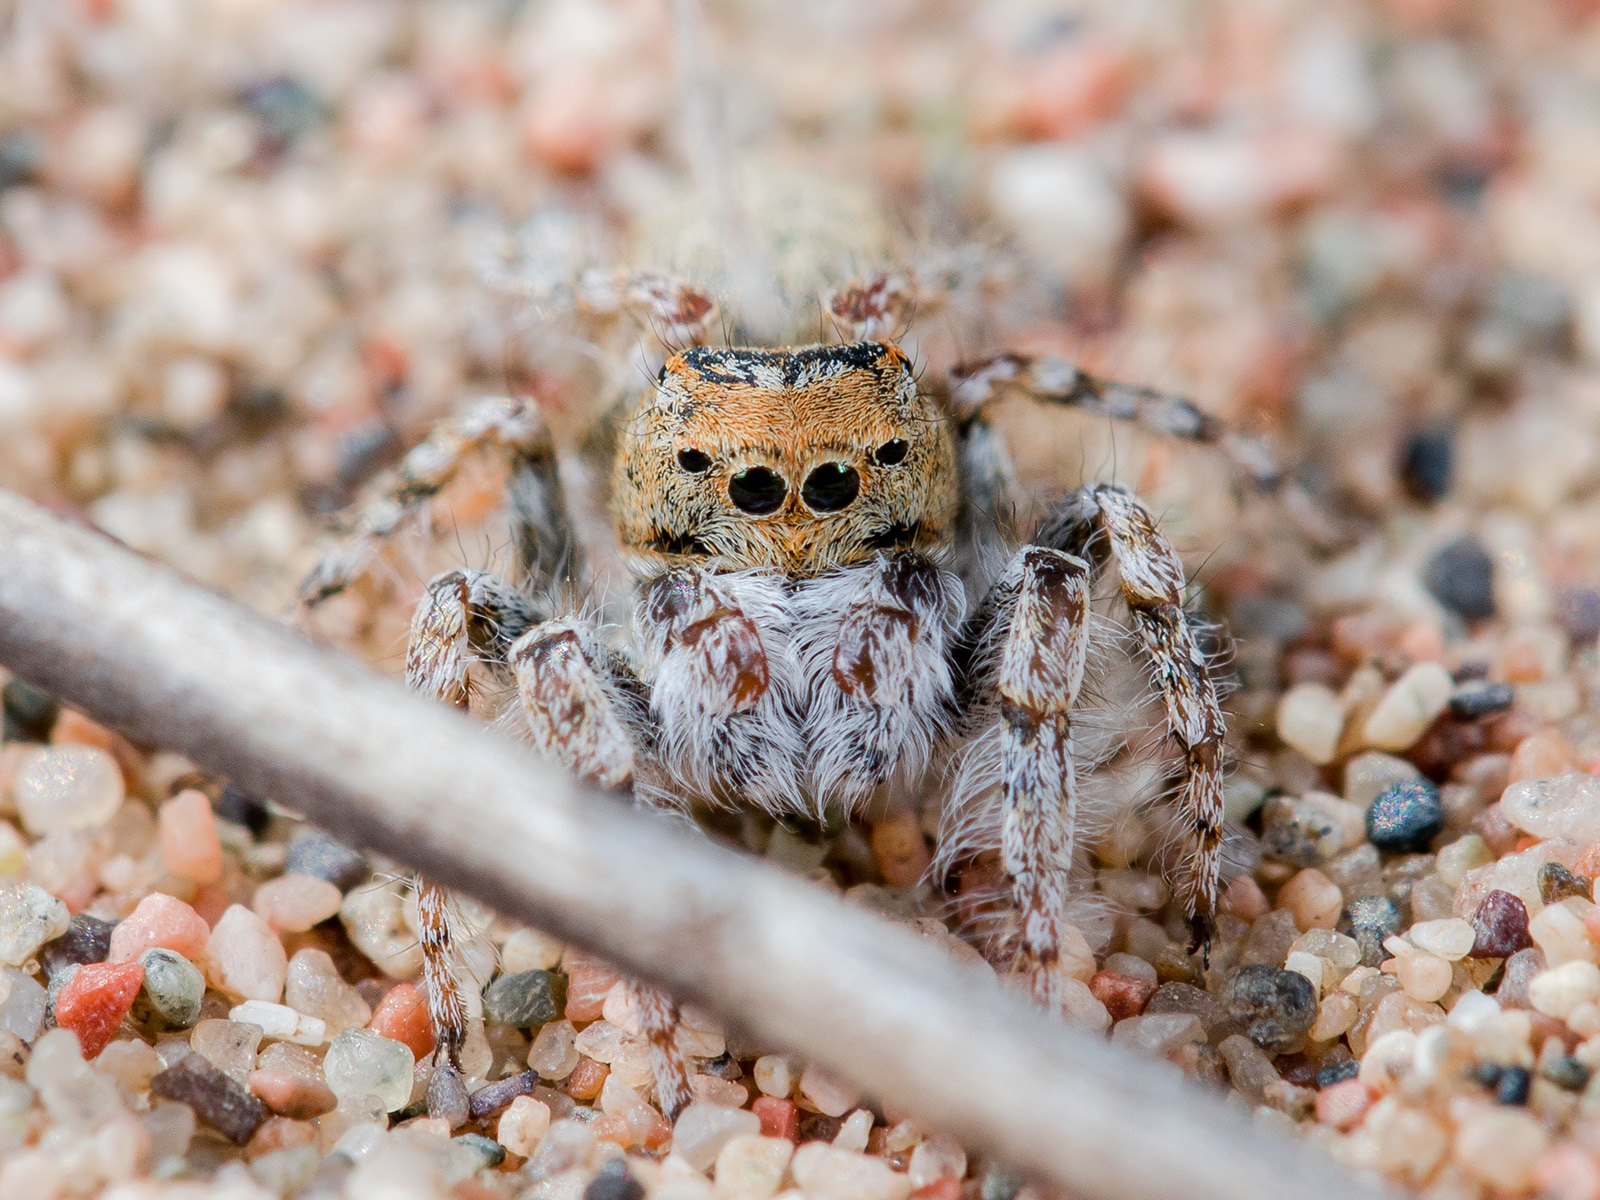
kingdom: Animalia
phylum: Arthropoda
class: Arachnida
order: Araneae
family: Salticidae
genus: Yllenus
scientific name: Yllenus uiguricus
